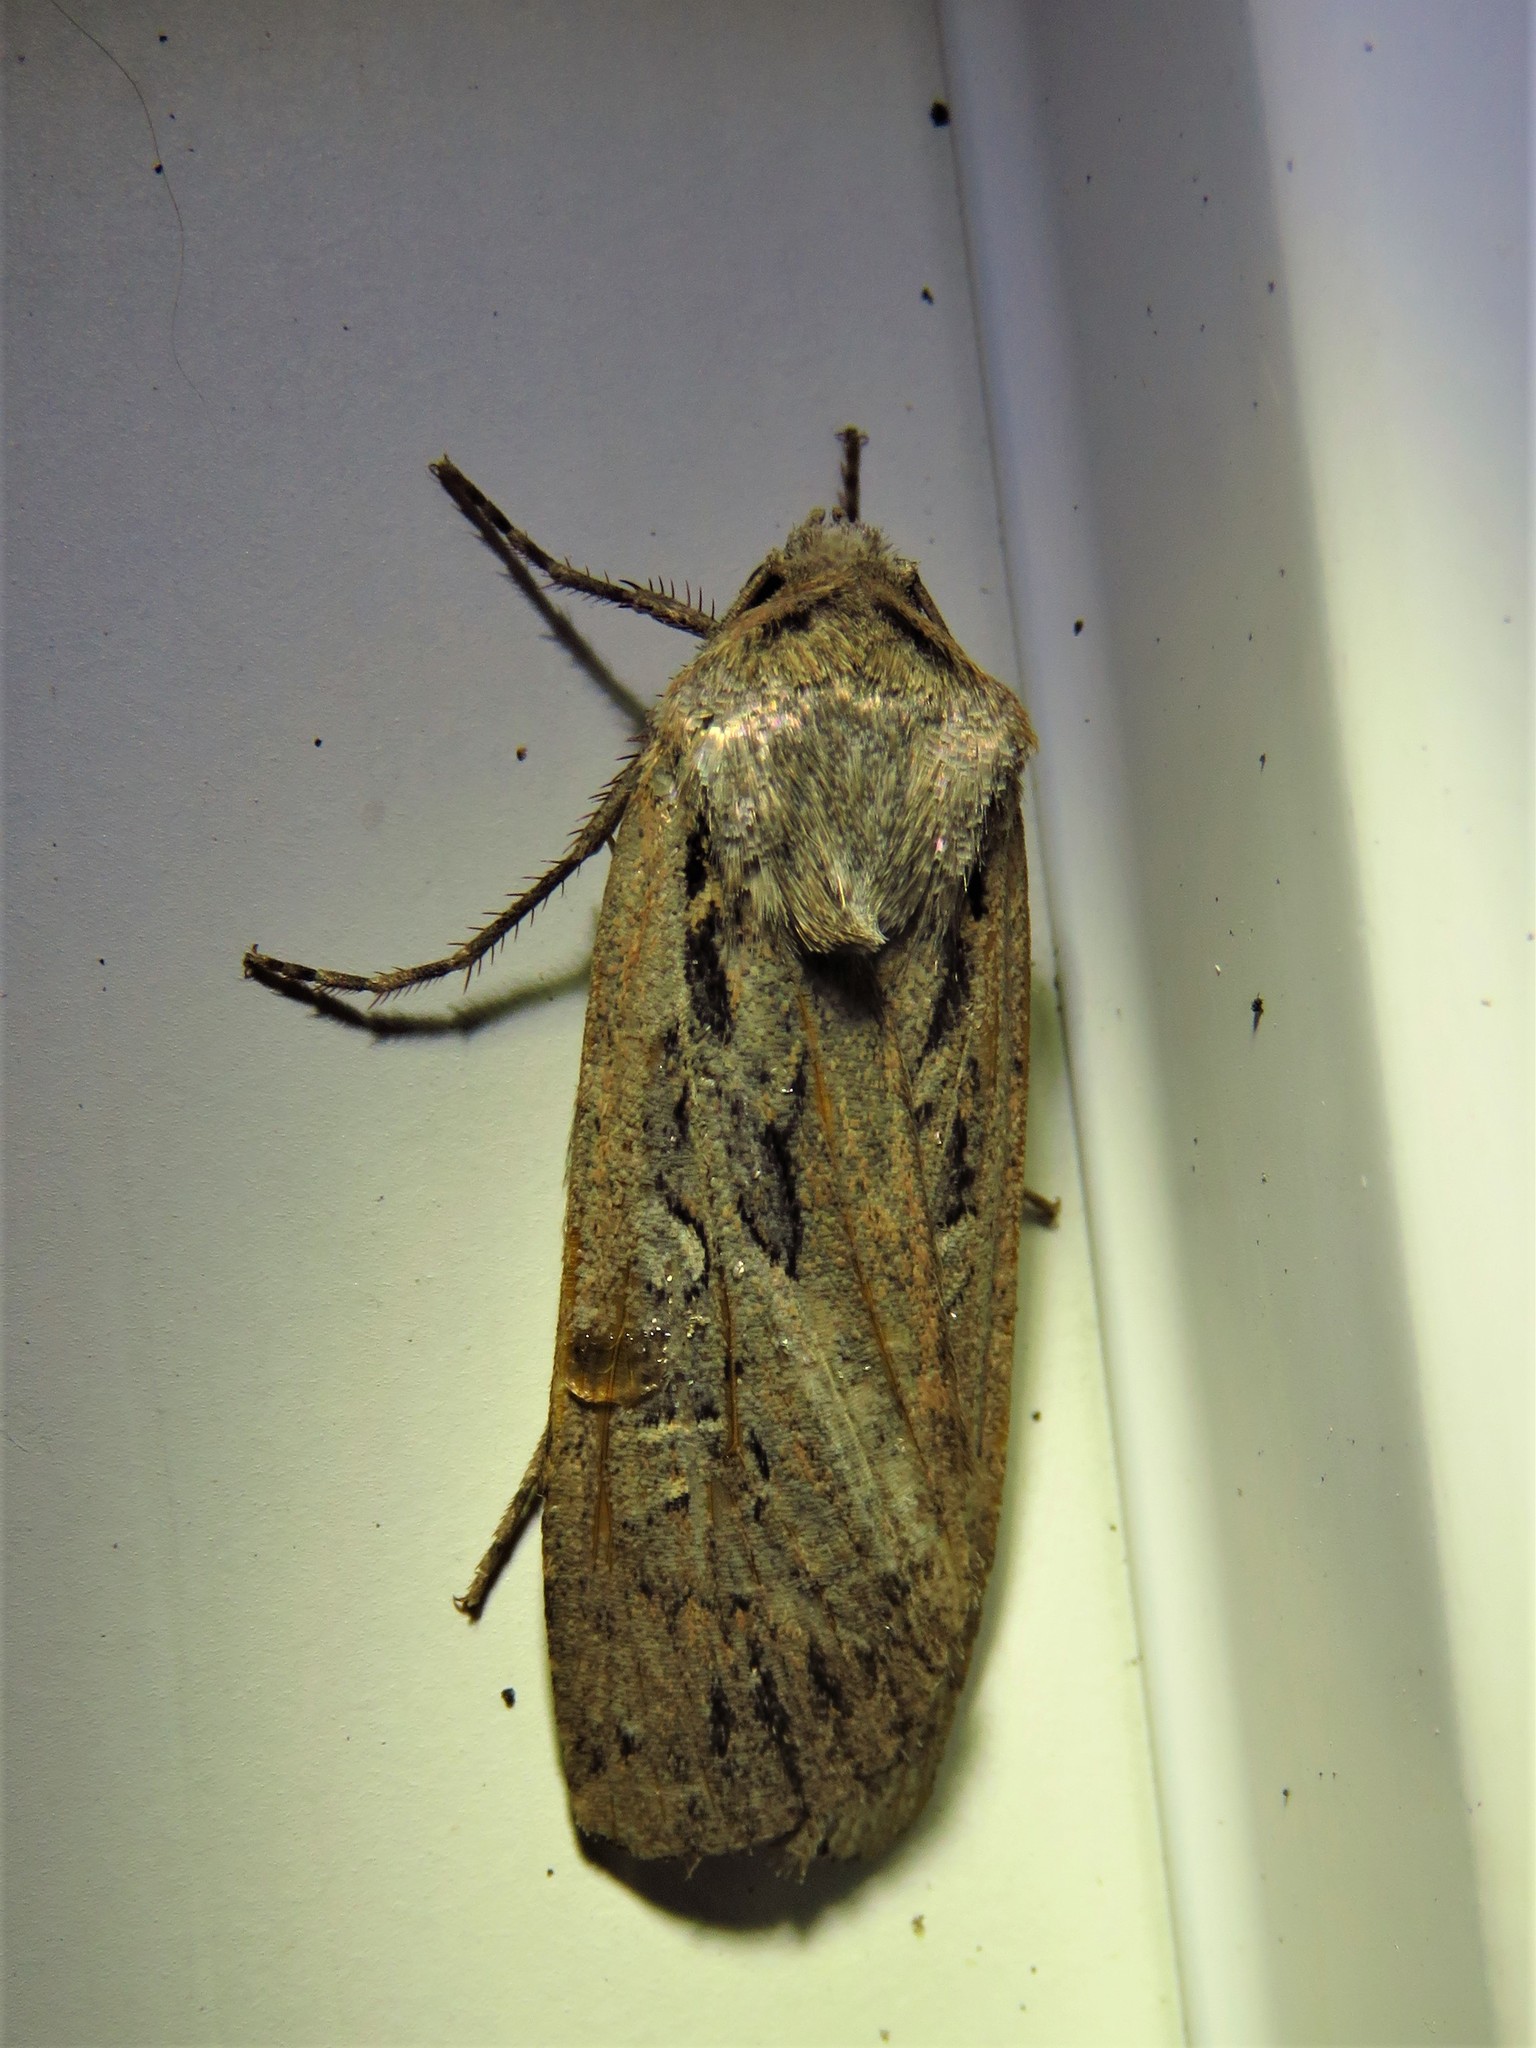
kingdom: Animalia
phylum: Arthropoda
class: Insecta
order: Lepidoptera
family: Noctuidae
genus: Euxoa
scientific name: Euxoa auxiliaris
